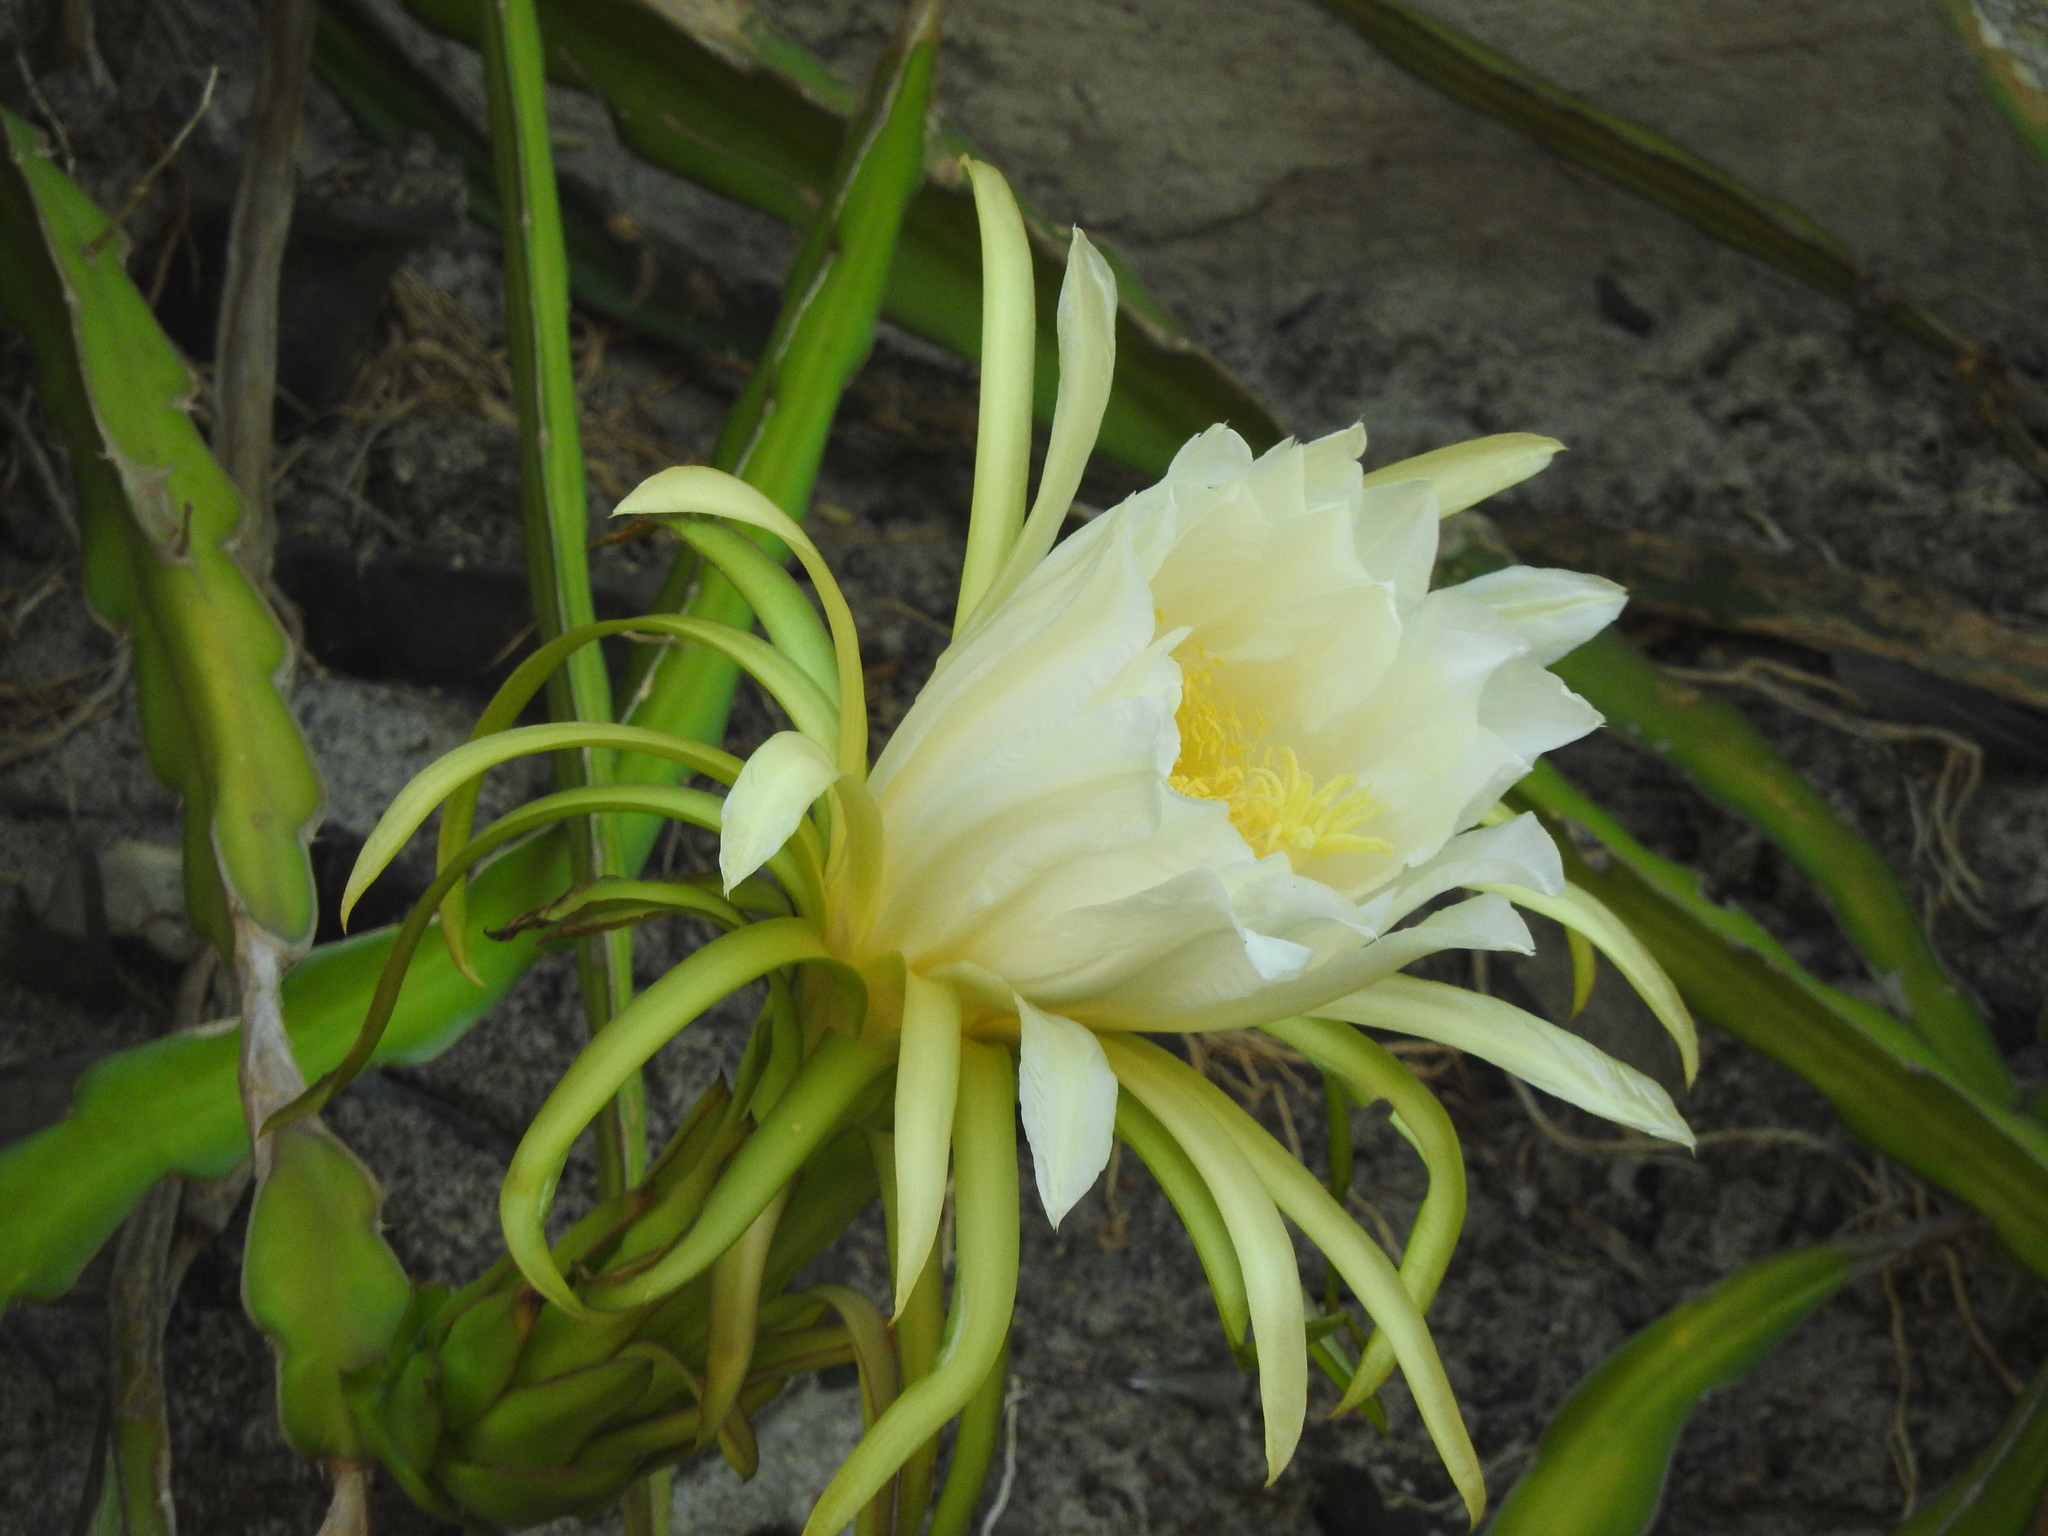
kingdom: Plantae
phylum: Tracheophyta
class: Magnoliopsida
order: Caryophyllales
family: Cactaceae
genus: Selenicereus
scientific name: Selenicereus undatus
